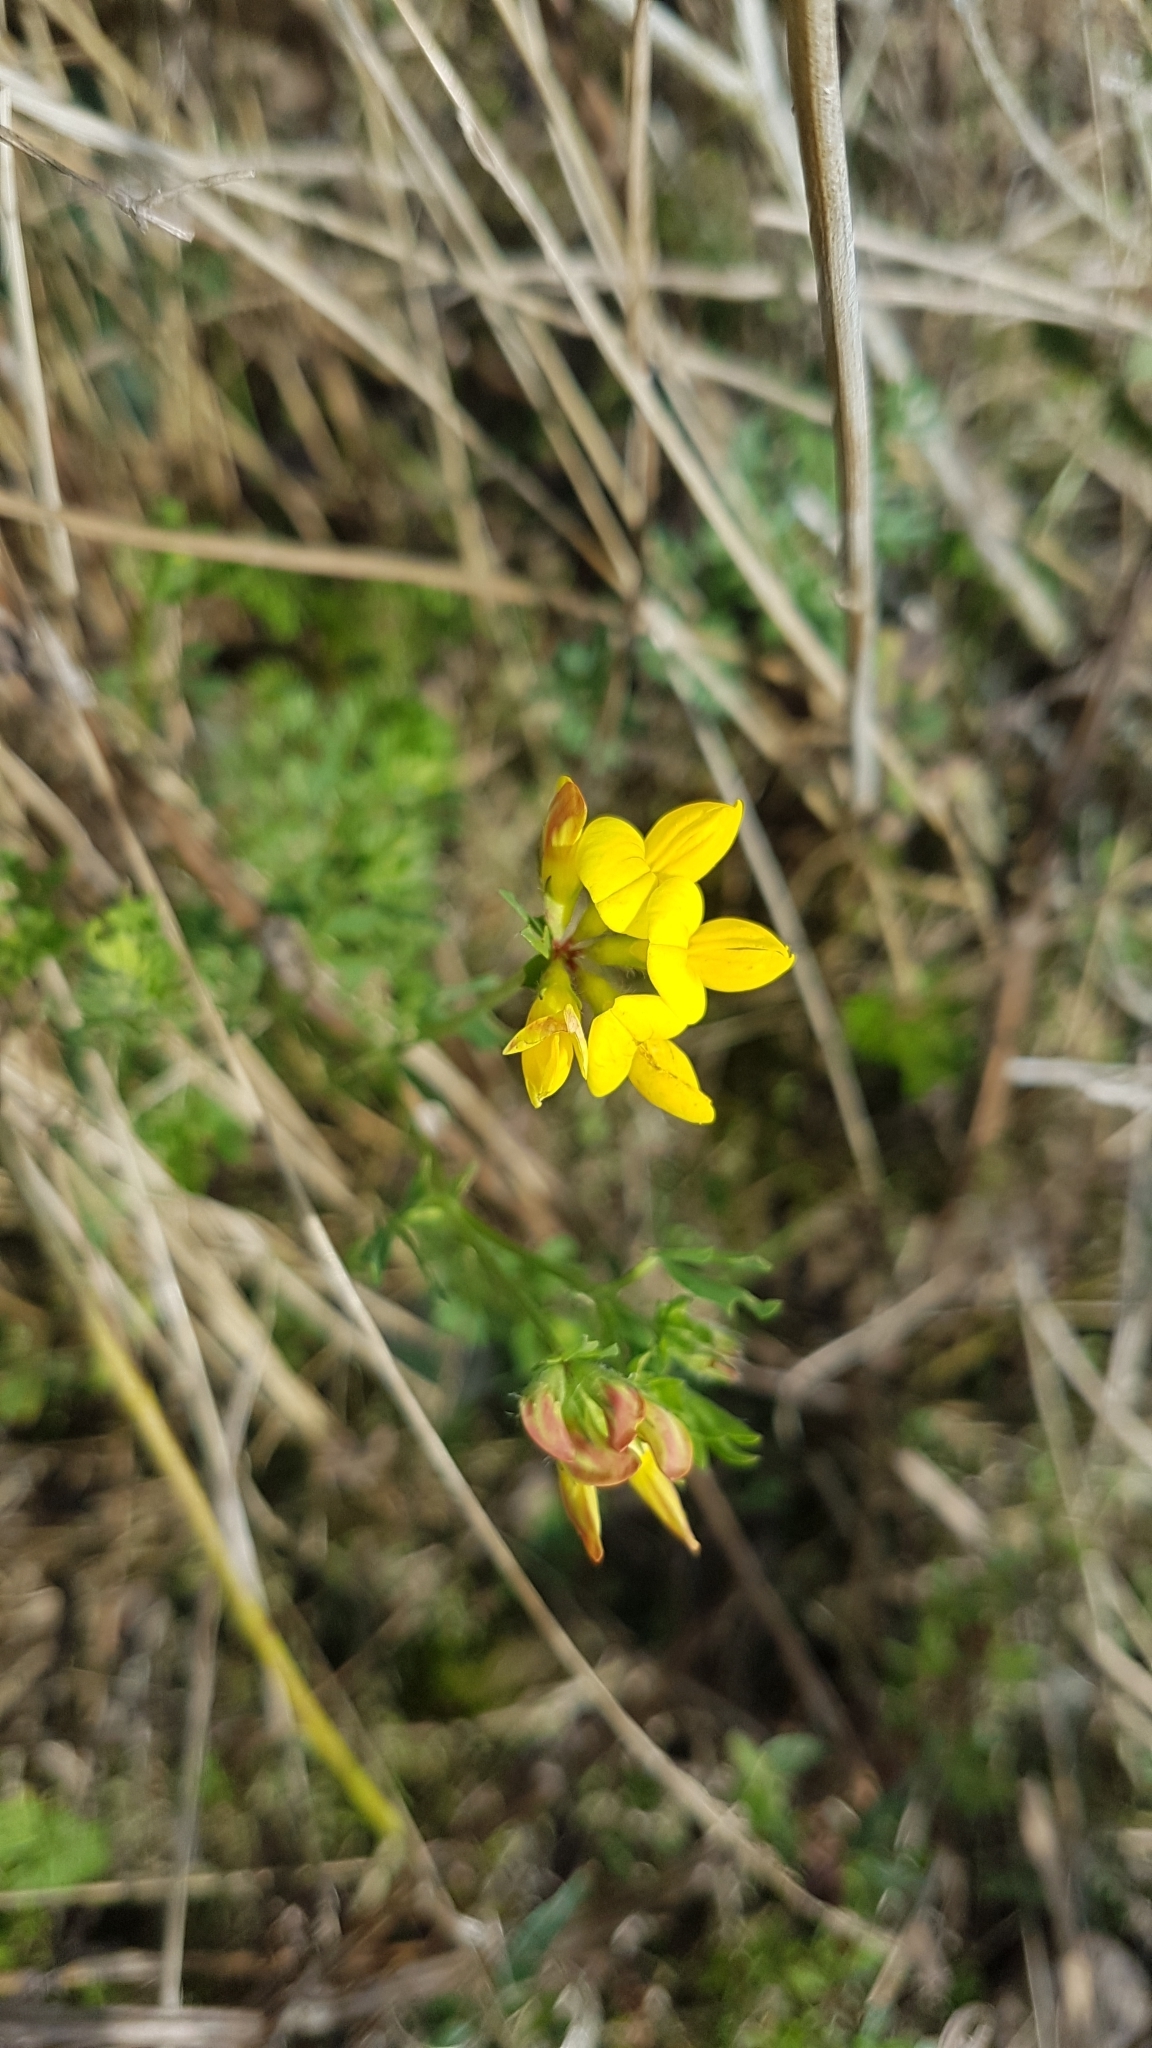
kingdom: Plantae
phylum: Tracheophyta
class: Magnoliopsida
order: Fabales
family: Fabaceae
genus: Lotus
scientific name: Lotus corniculatus
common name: Common bird's-foot-trefoil
